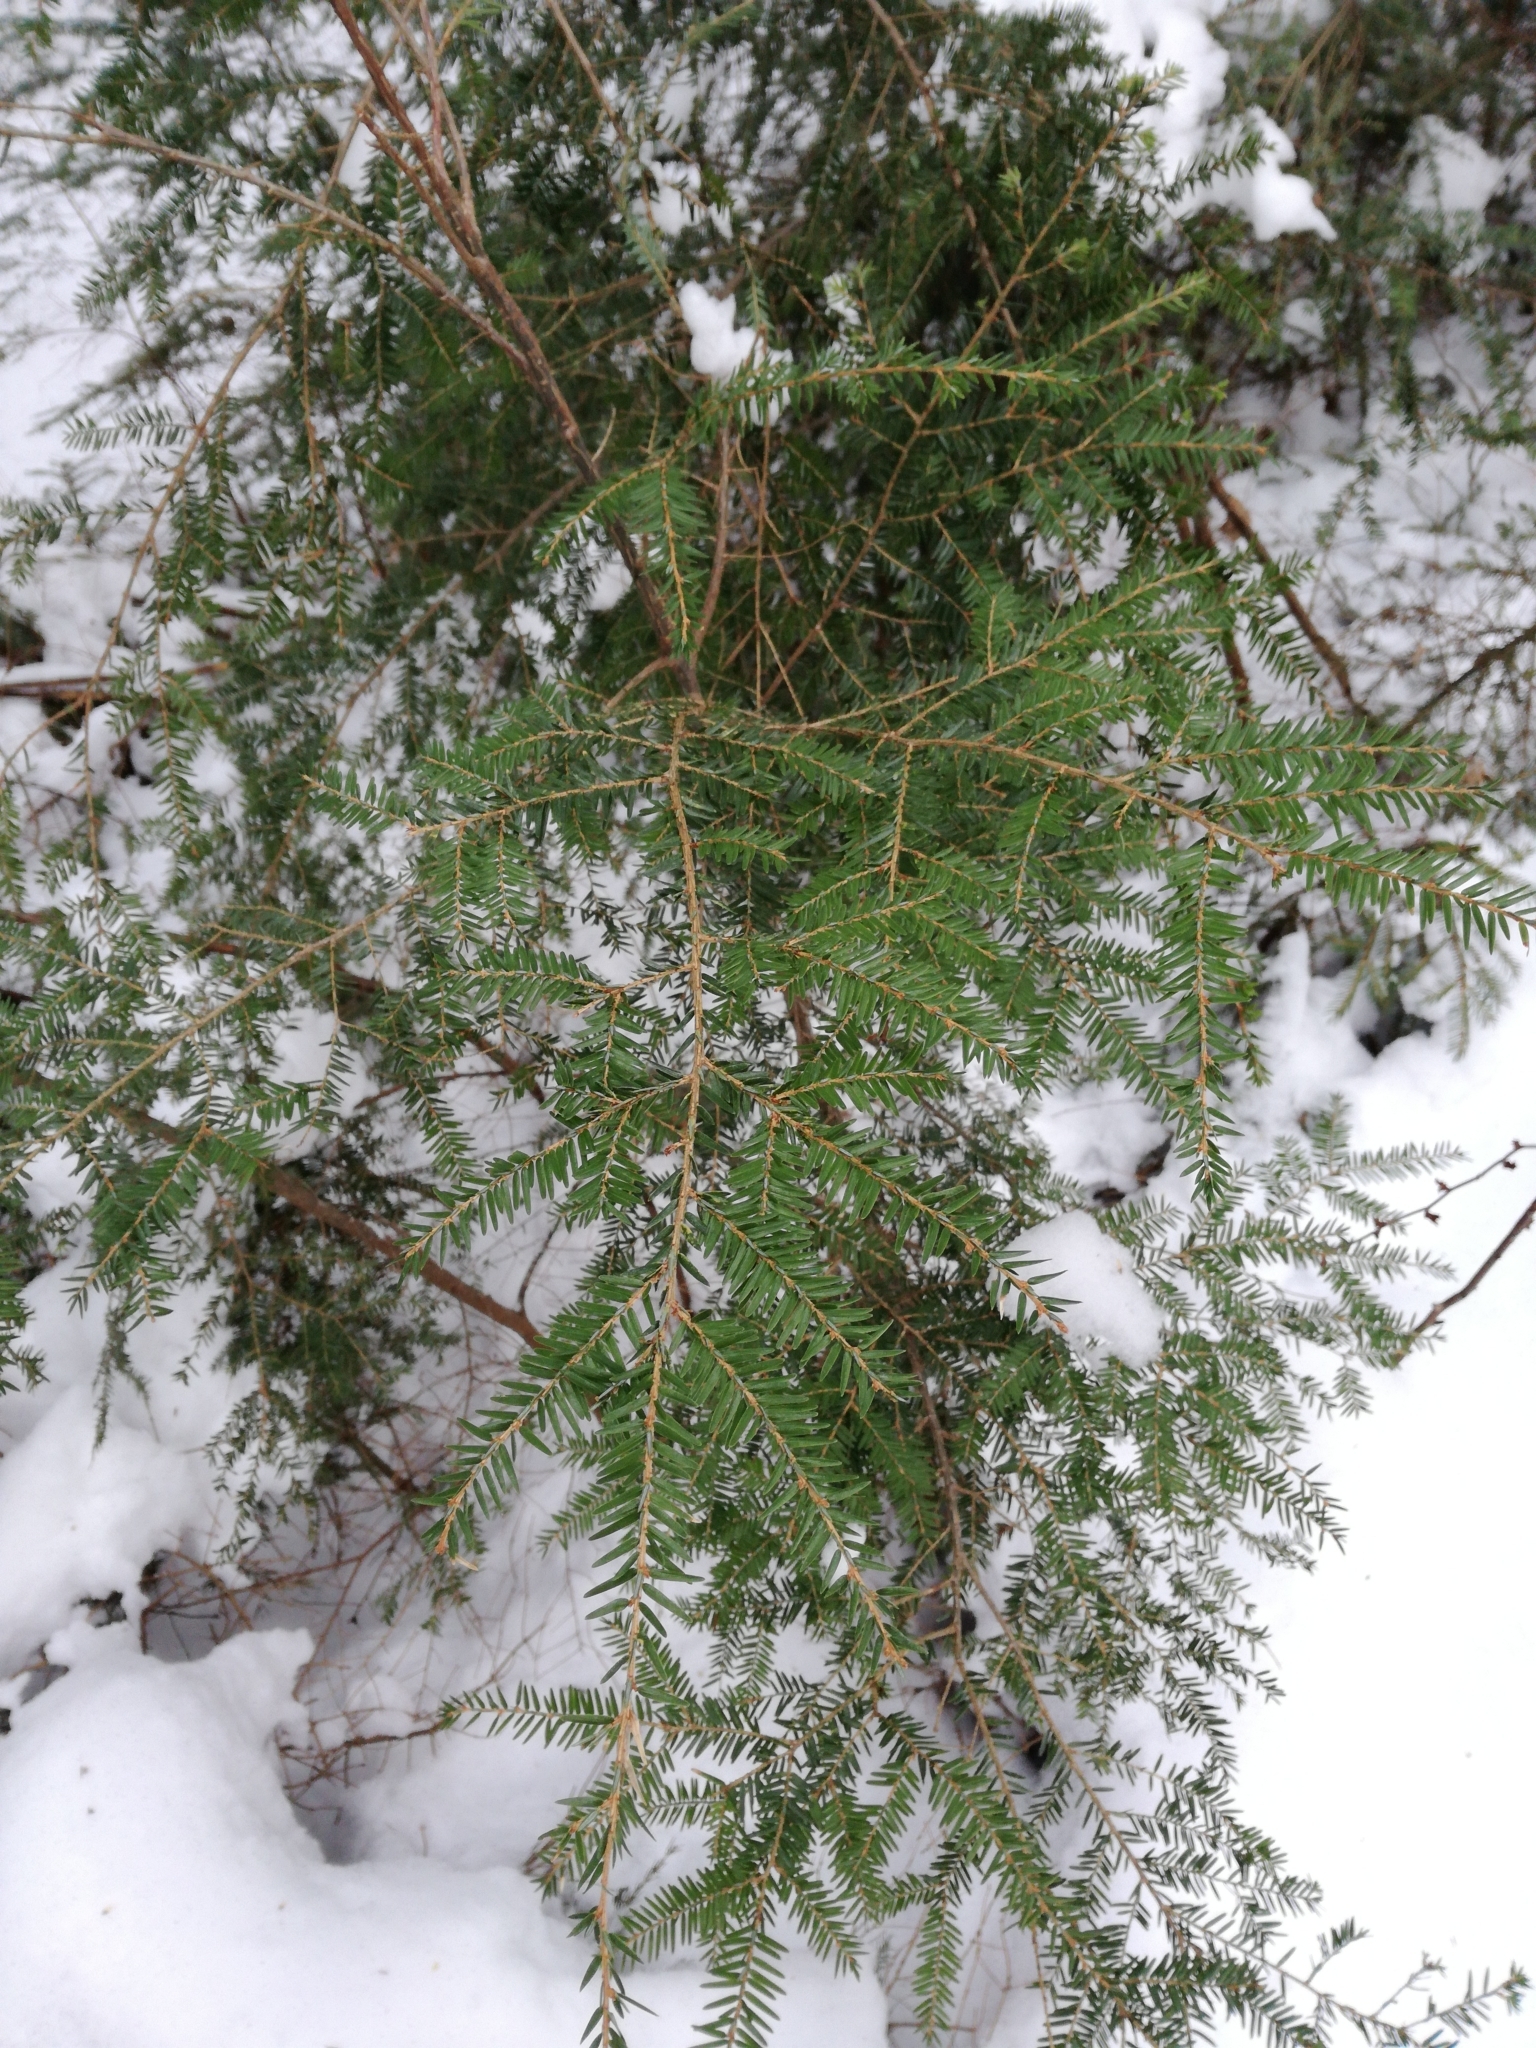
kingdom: Plantae
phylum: Tracheophyta
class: Pinopsida
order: Pinales
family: Pinaceae
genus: Tsuga
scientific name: Tsuga canadensis
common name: Eastern hemlock
